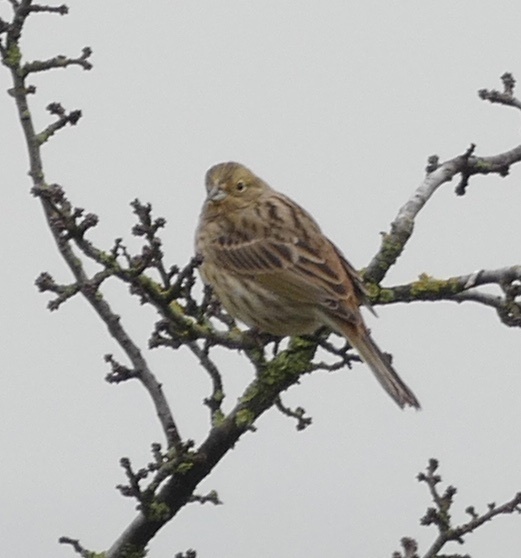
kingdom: Animalia
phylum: Chordata
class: Aves
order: Passeriformes
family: Emberizidae
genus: Emberiza
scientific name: Emberiza citrinella
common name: Yellowhammer
